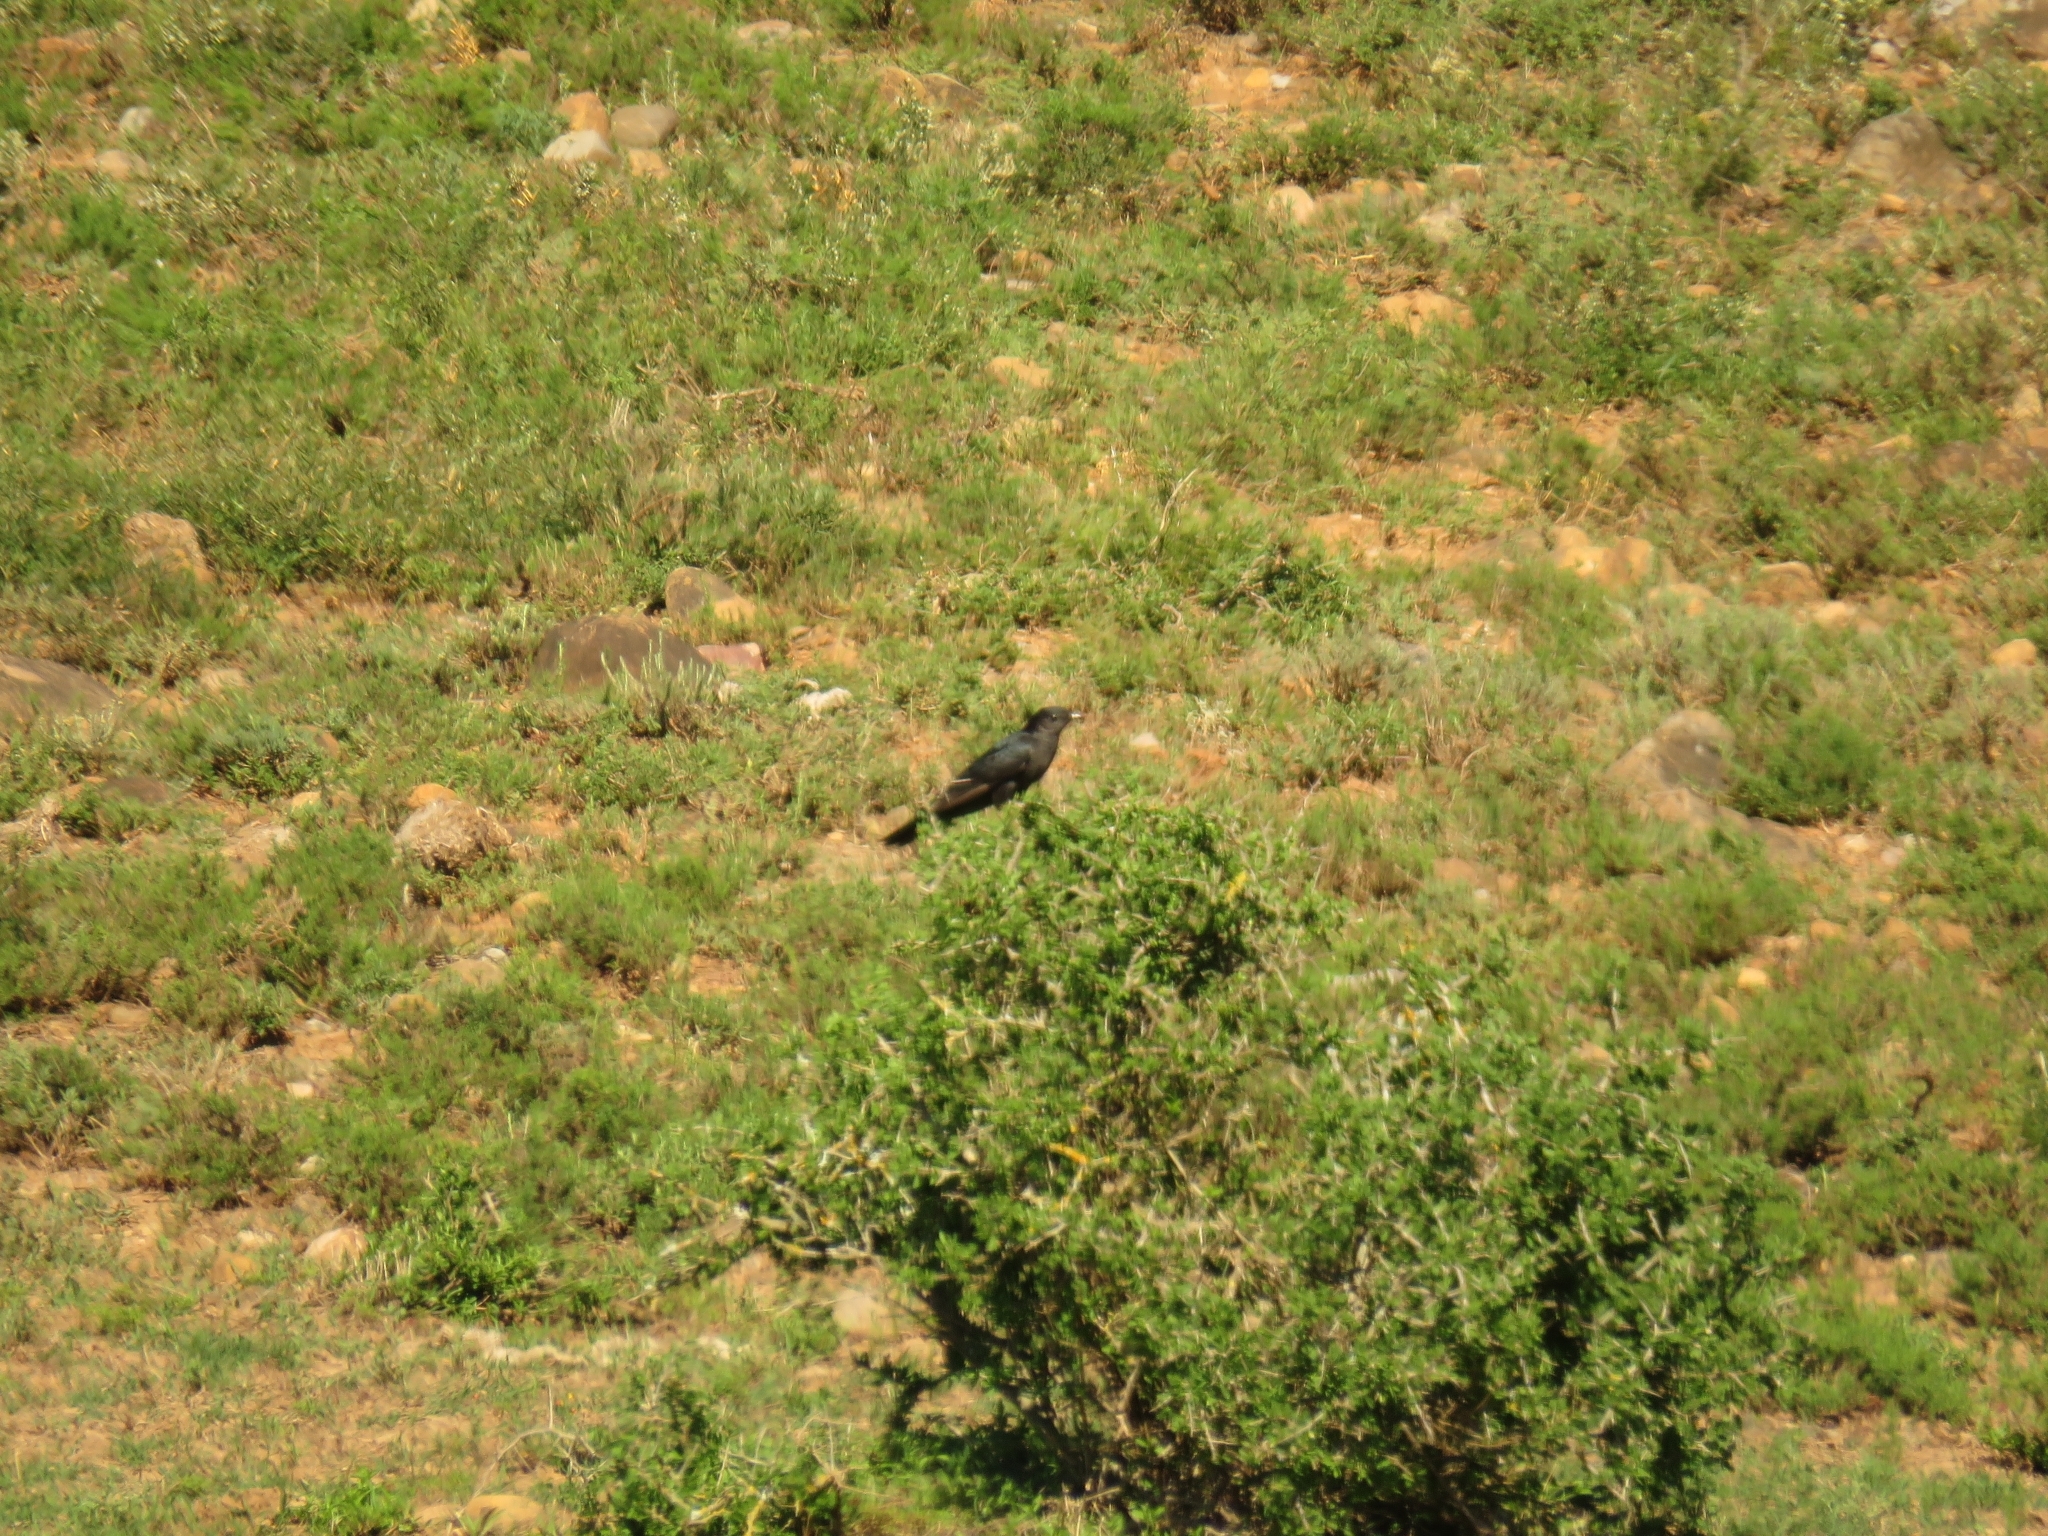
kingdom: Animalia
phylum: Chordata
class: Aves
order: Cuculiformes
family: Cuculidae
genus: Cuculus
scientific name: Cuculus clamosus
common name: Black cuckoo
